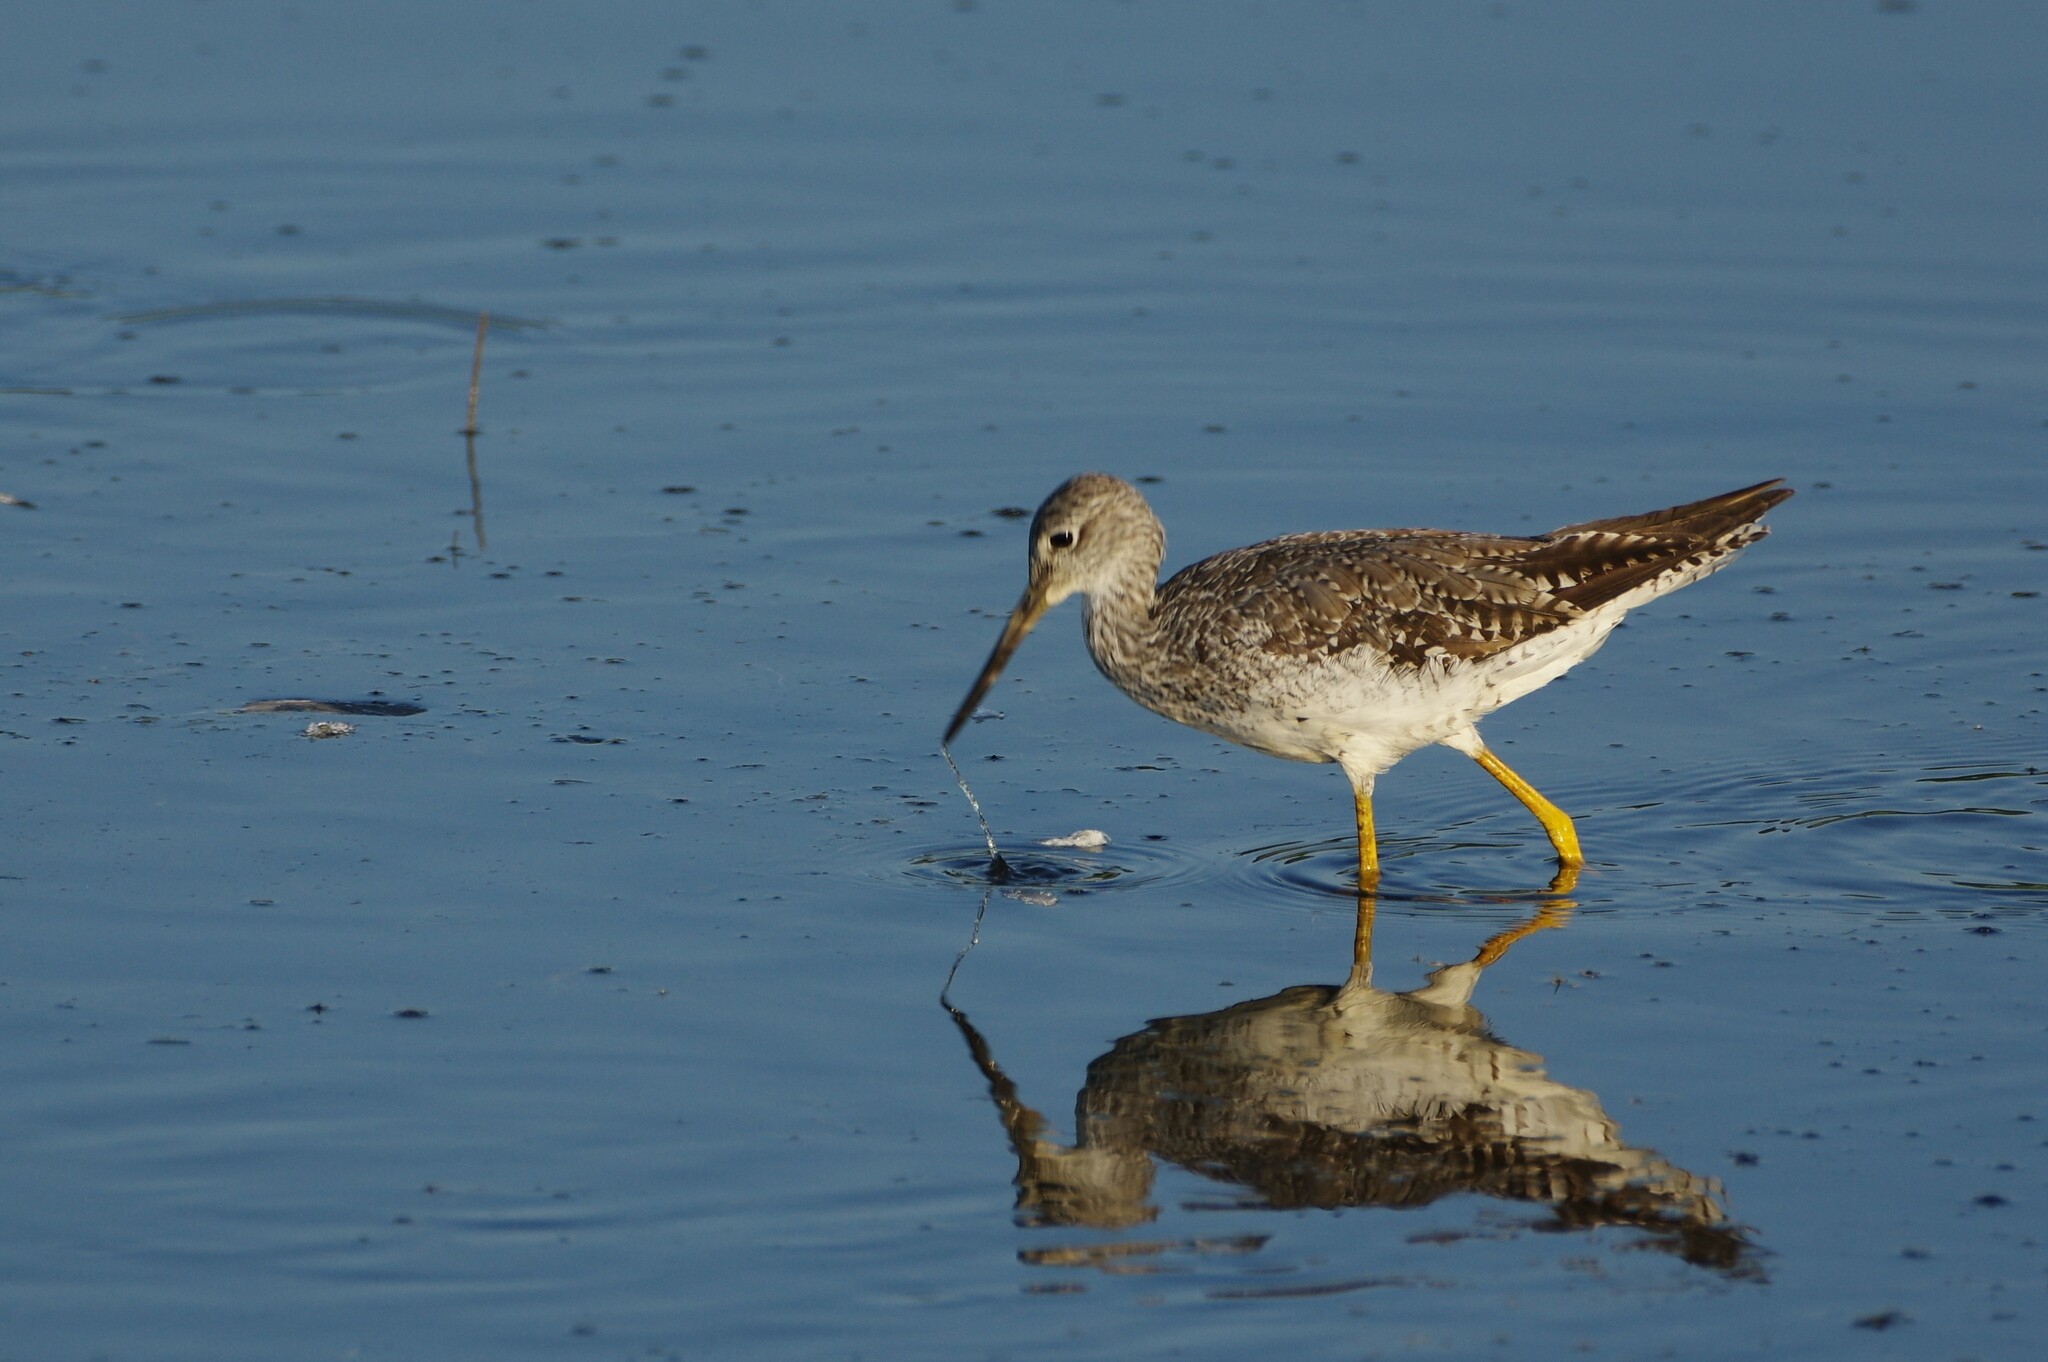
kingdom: Animalia
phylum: Chordata
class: Aves
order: Charadriiformes
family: Scolopacidae
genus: Tringa
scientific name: Tringa melanoleuca
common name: Greater yellowlegs
